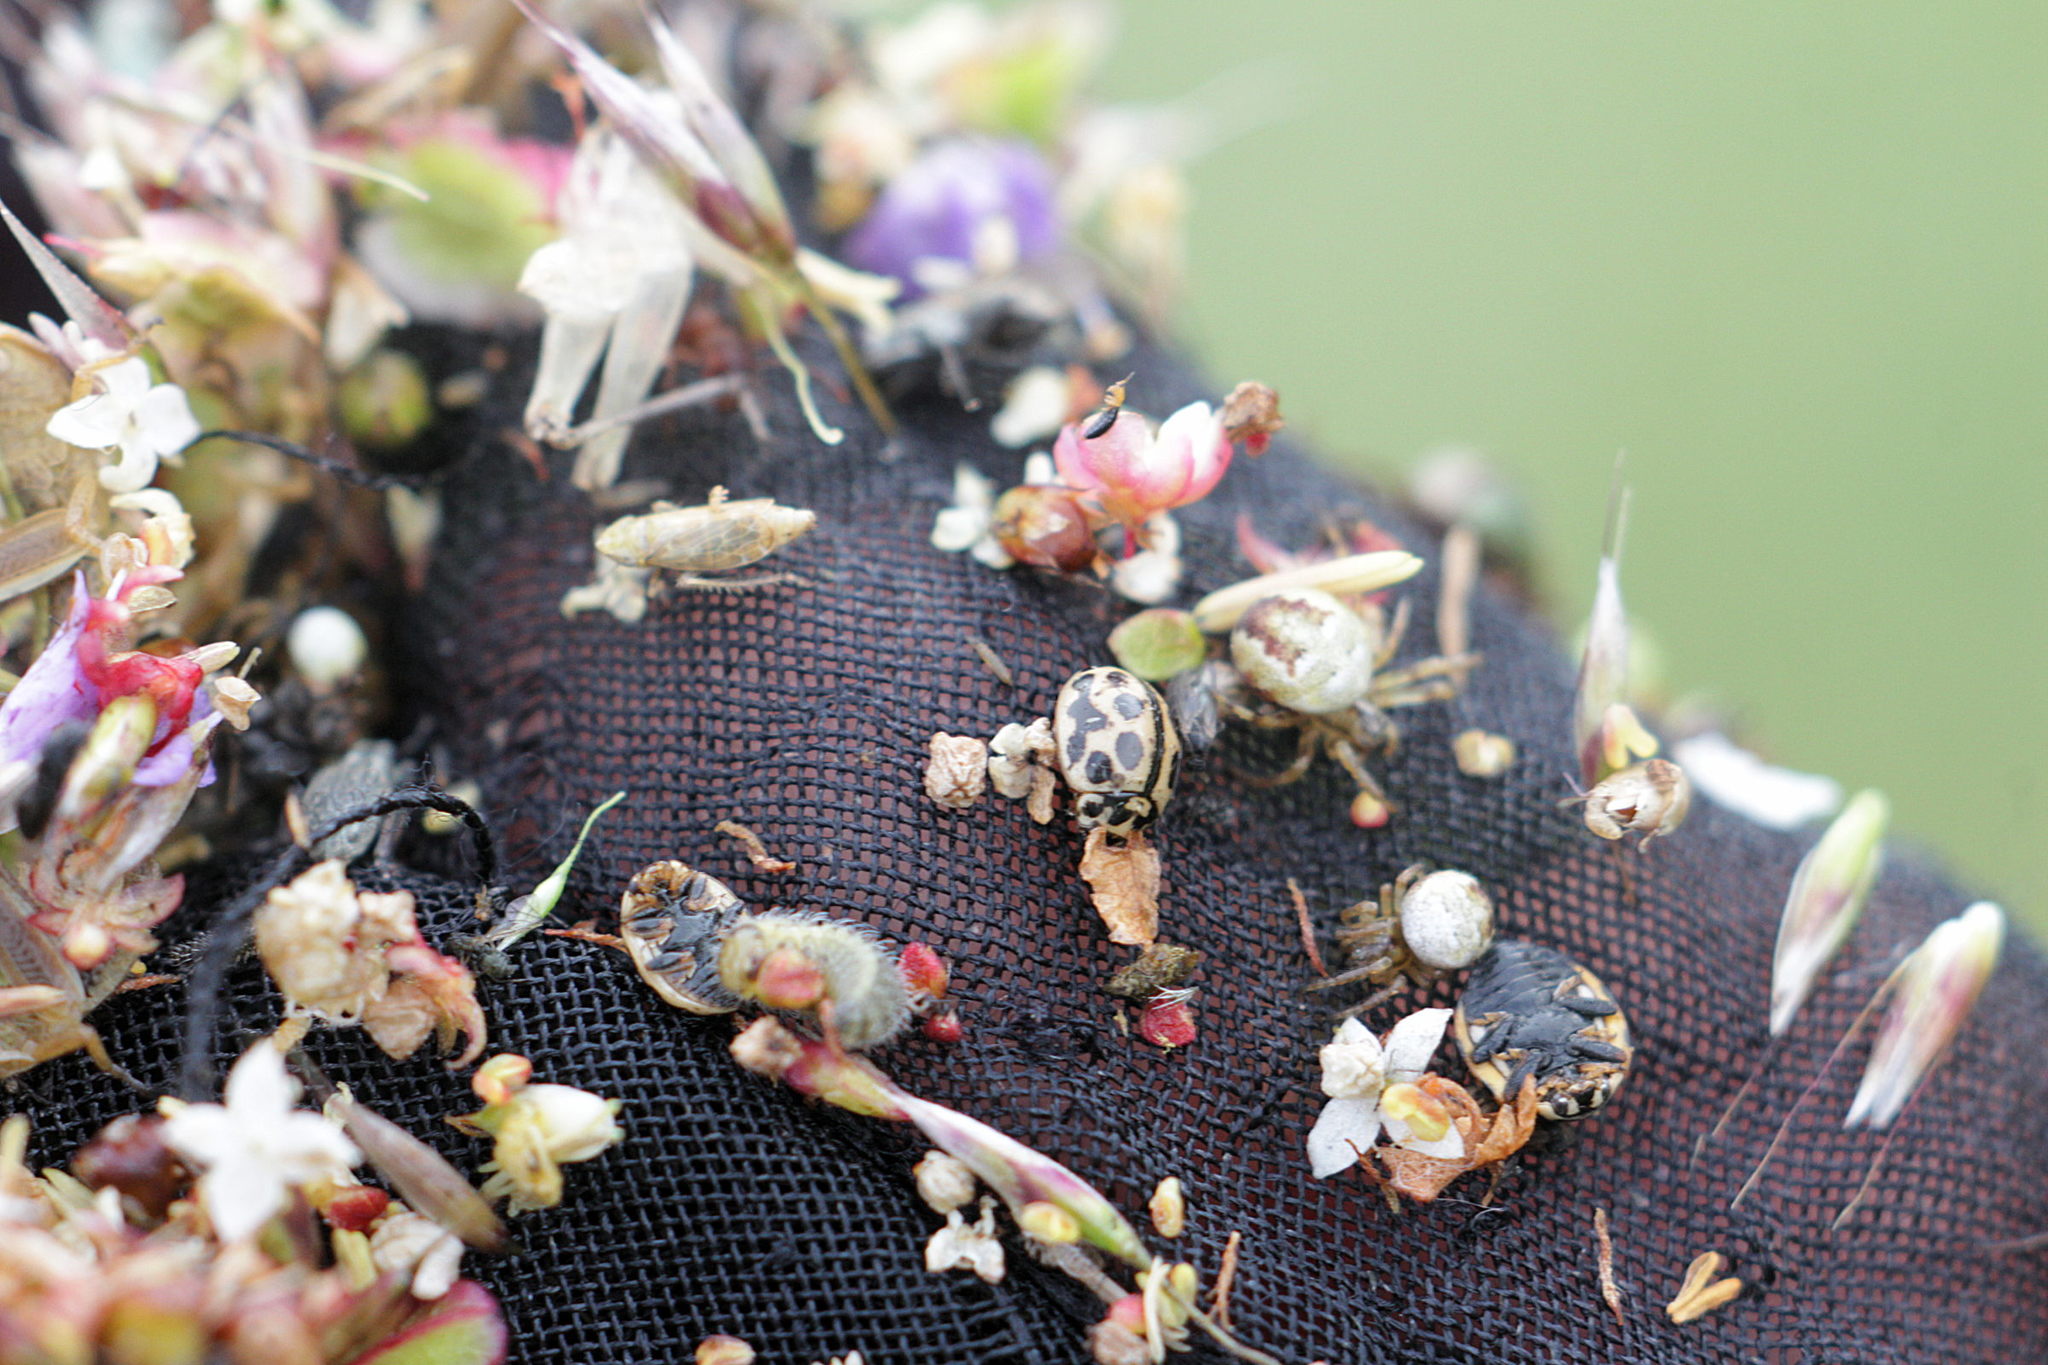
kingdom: Animalia
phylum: Arthropoda
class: Insecta
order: Coleoptera
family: Coccinellidae
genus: Tytthaspis
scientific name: Tytthaspis sedecimpunctata
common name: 16-spot ladybird
